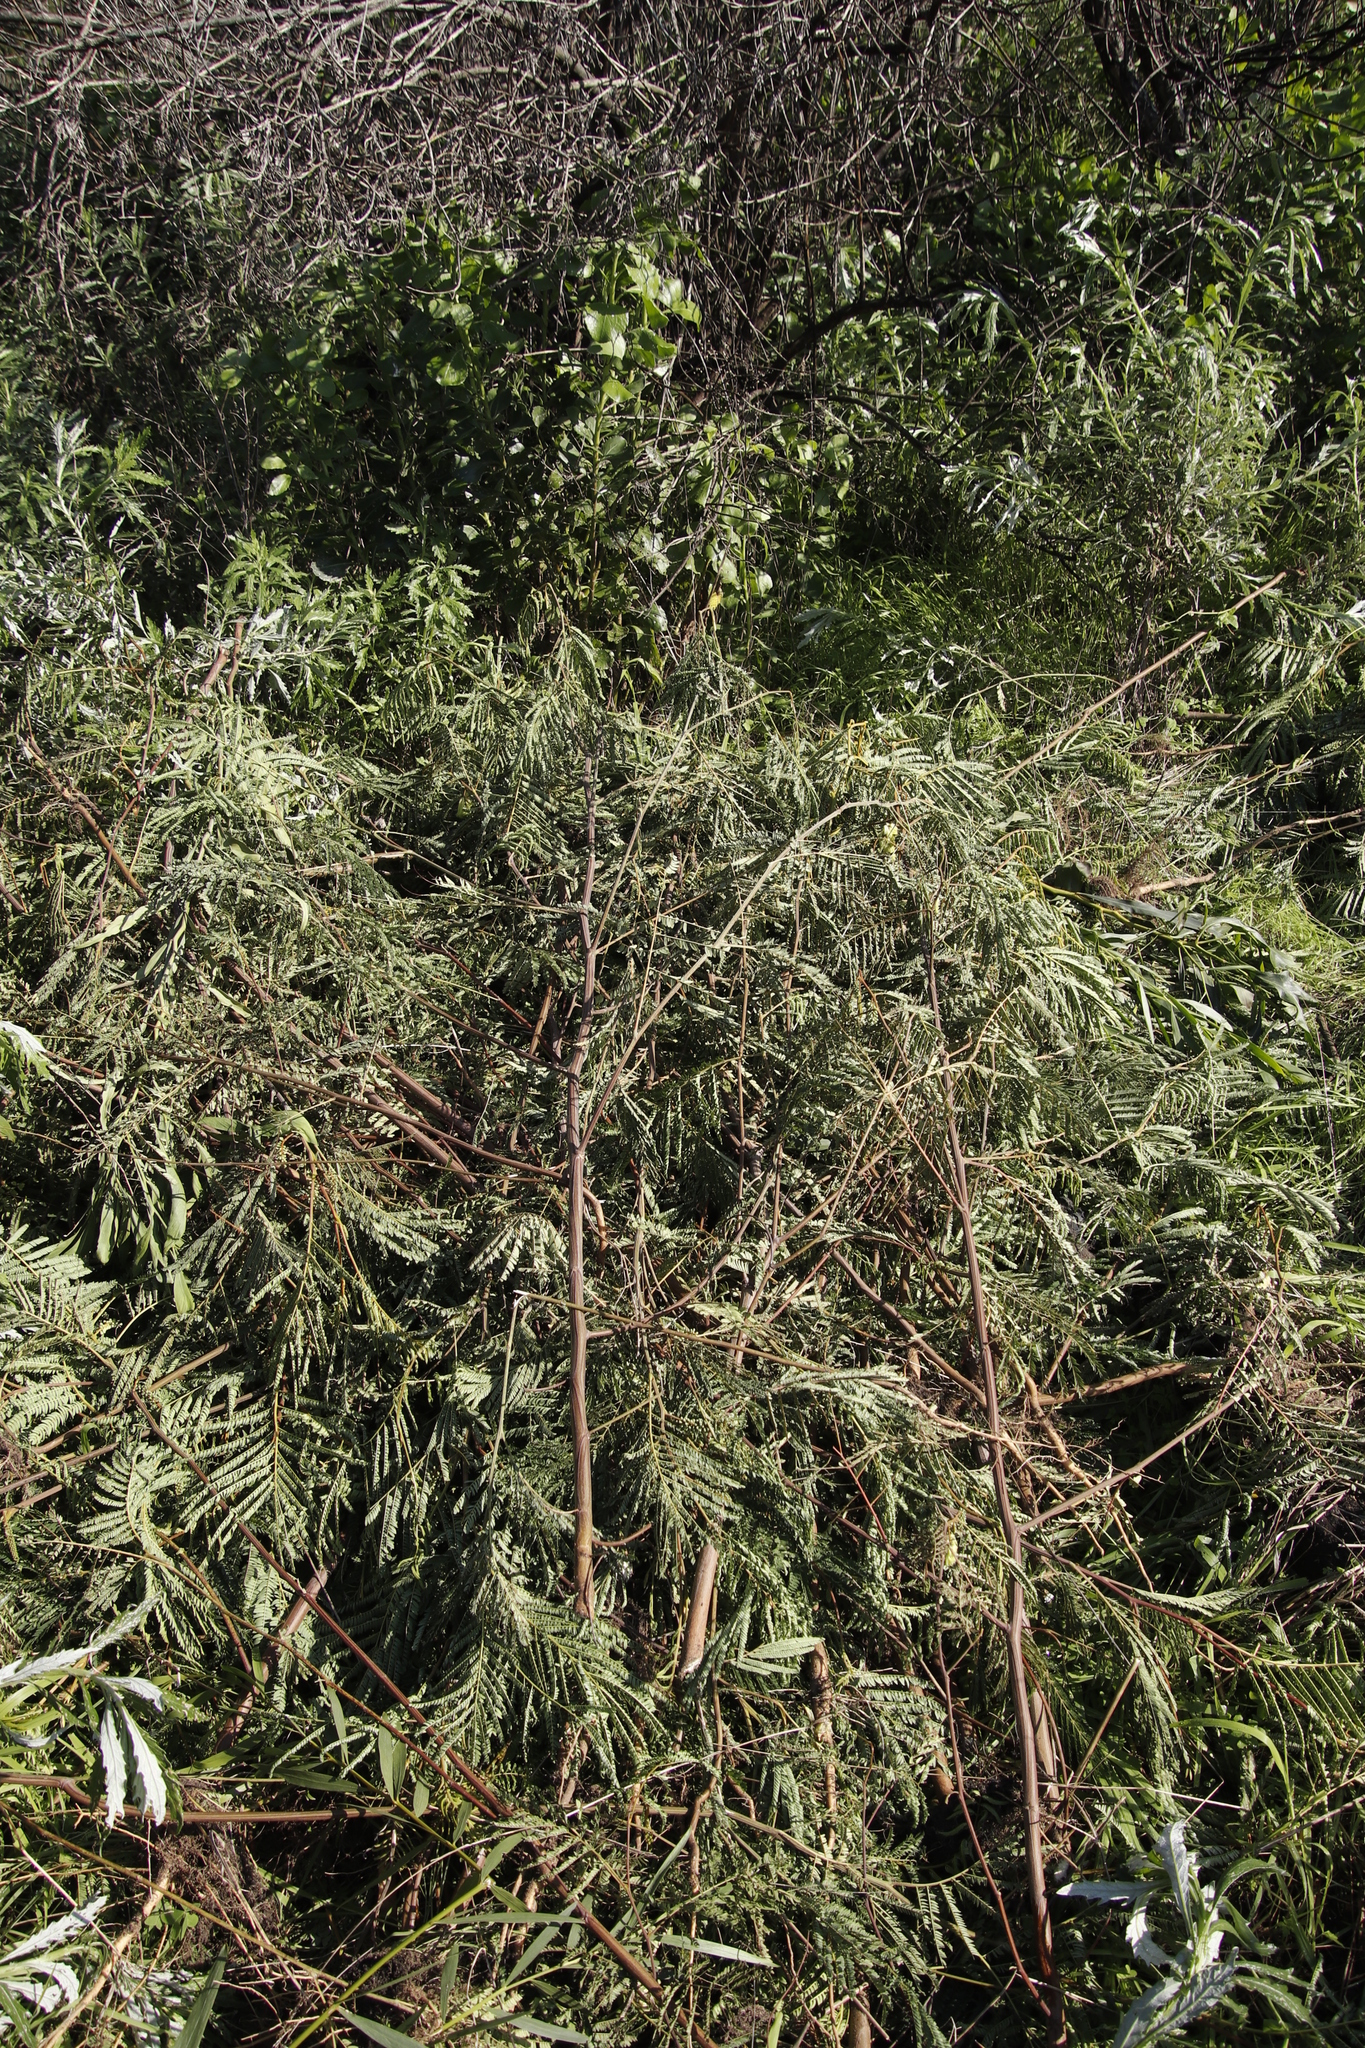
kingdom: Plantae
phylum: Tracheophyta
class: Magnoliopsida
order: Fabales
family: Fabaceae
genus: Paraserianthes
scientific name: Paraserianthes lophantha
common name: Plume albizia
